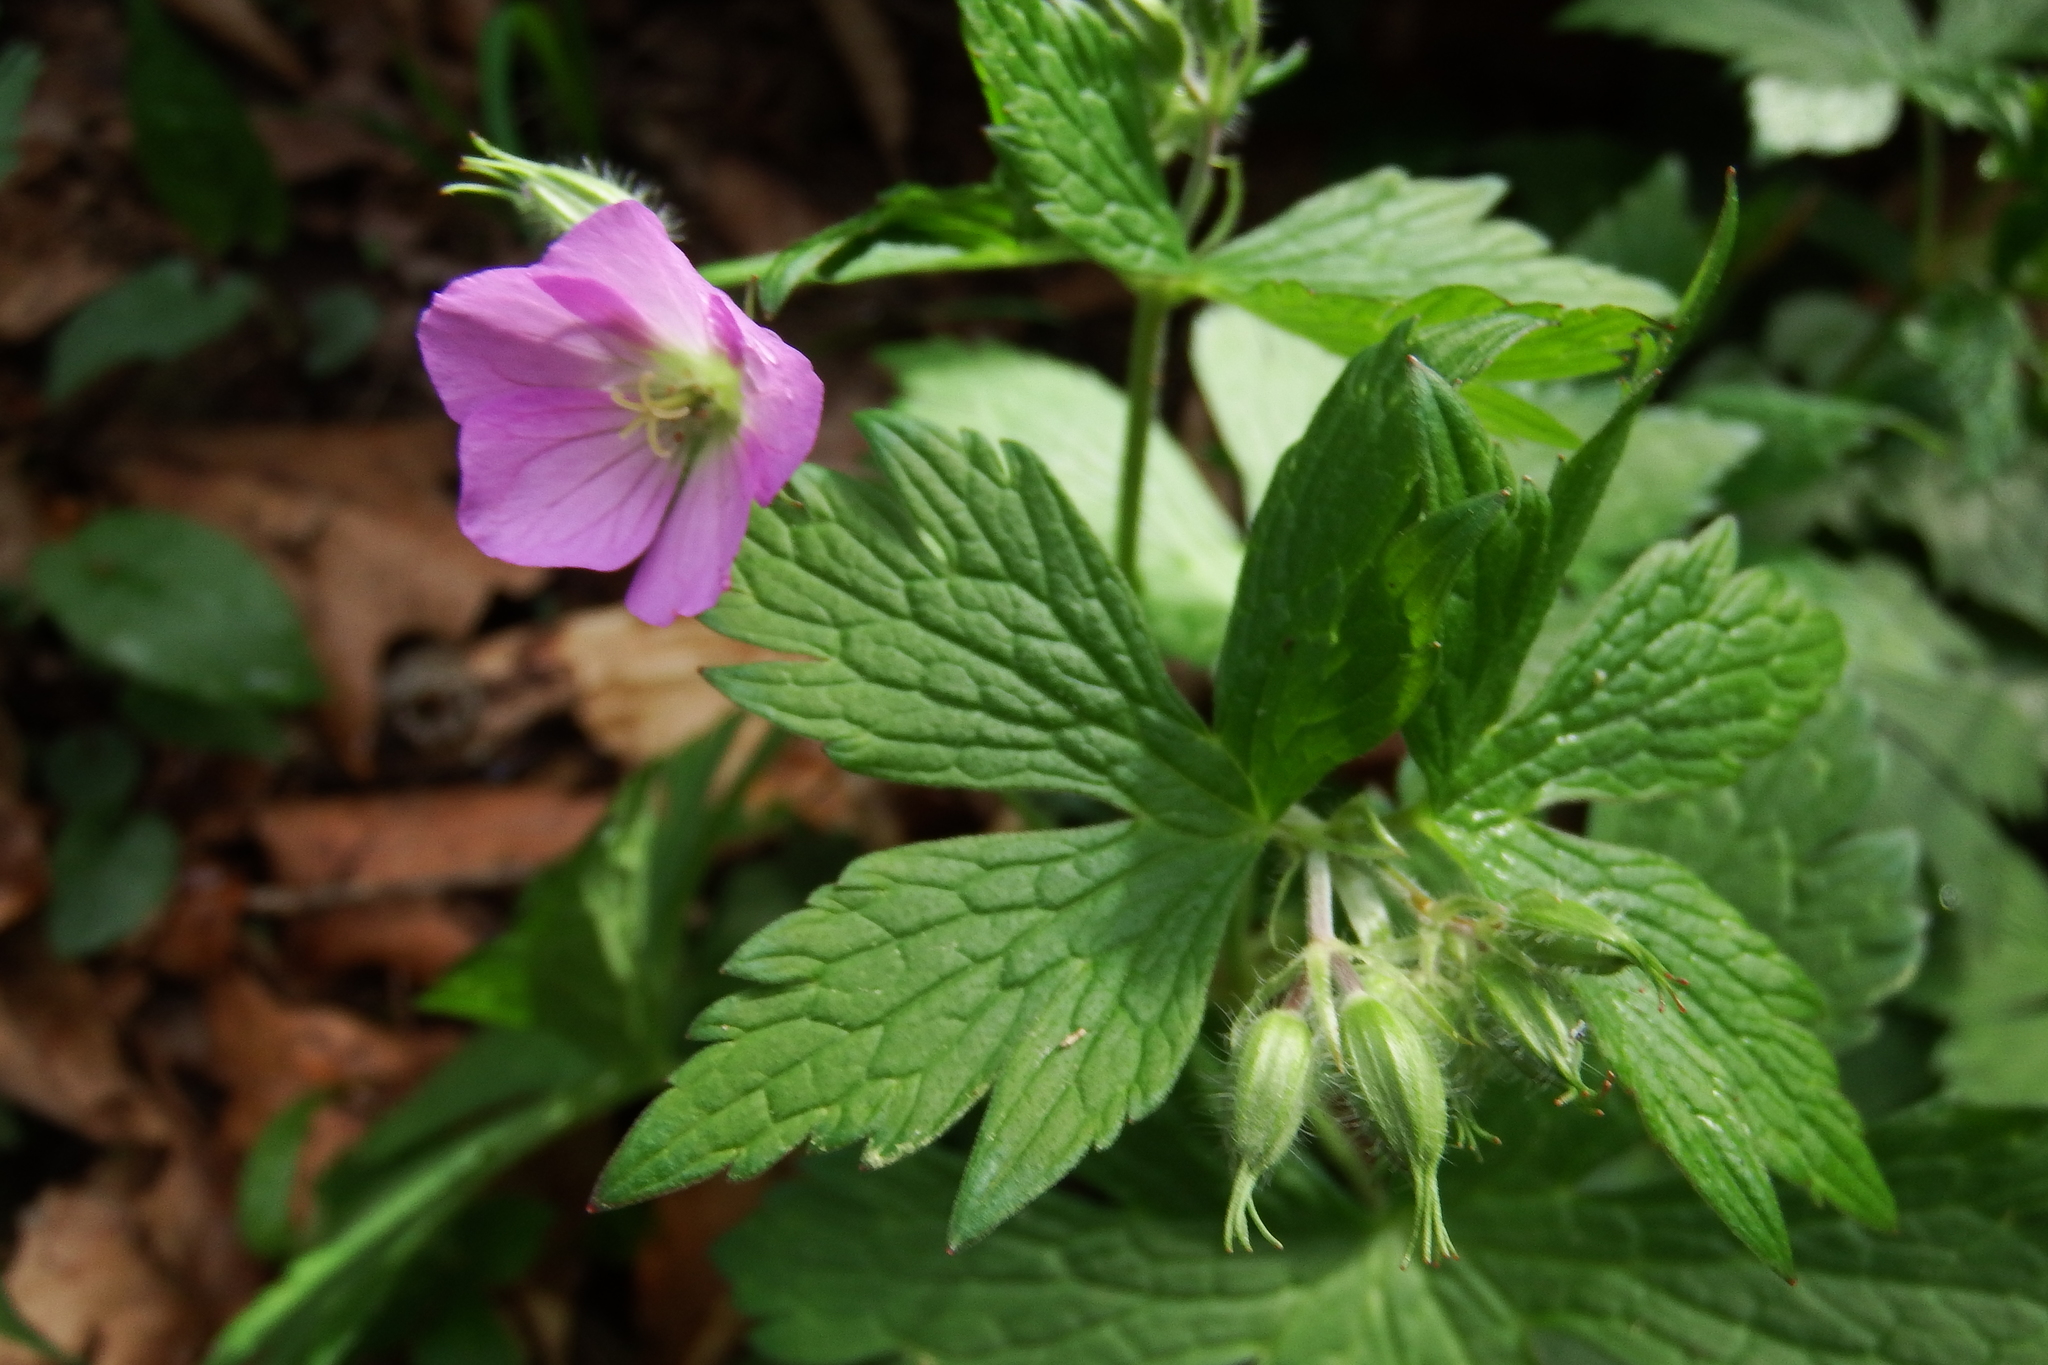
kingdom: Plantae
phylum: Tracheophyta
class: Magnoliopsida
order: Geraniales
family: Geraniaceae
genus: Geranium
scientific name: Geranium maculatum
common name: Spotted geranium
